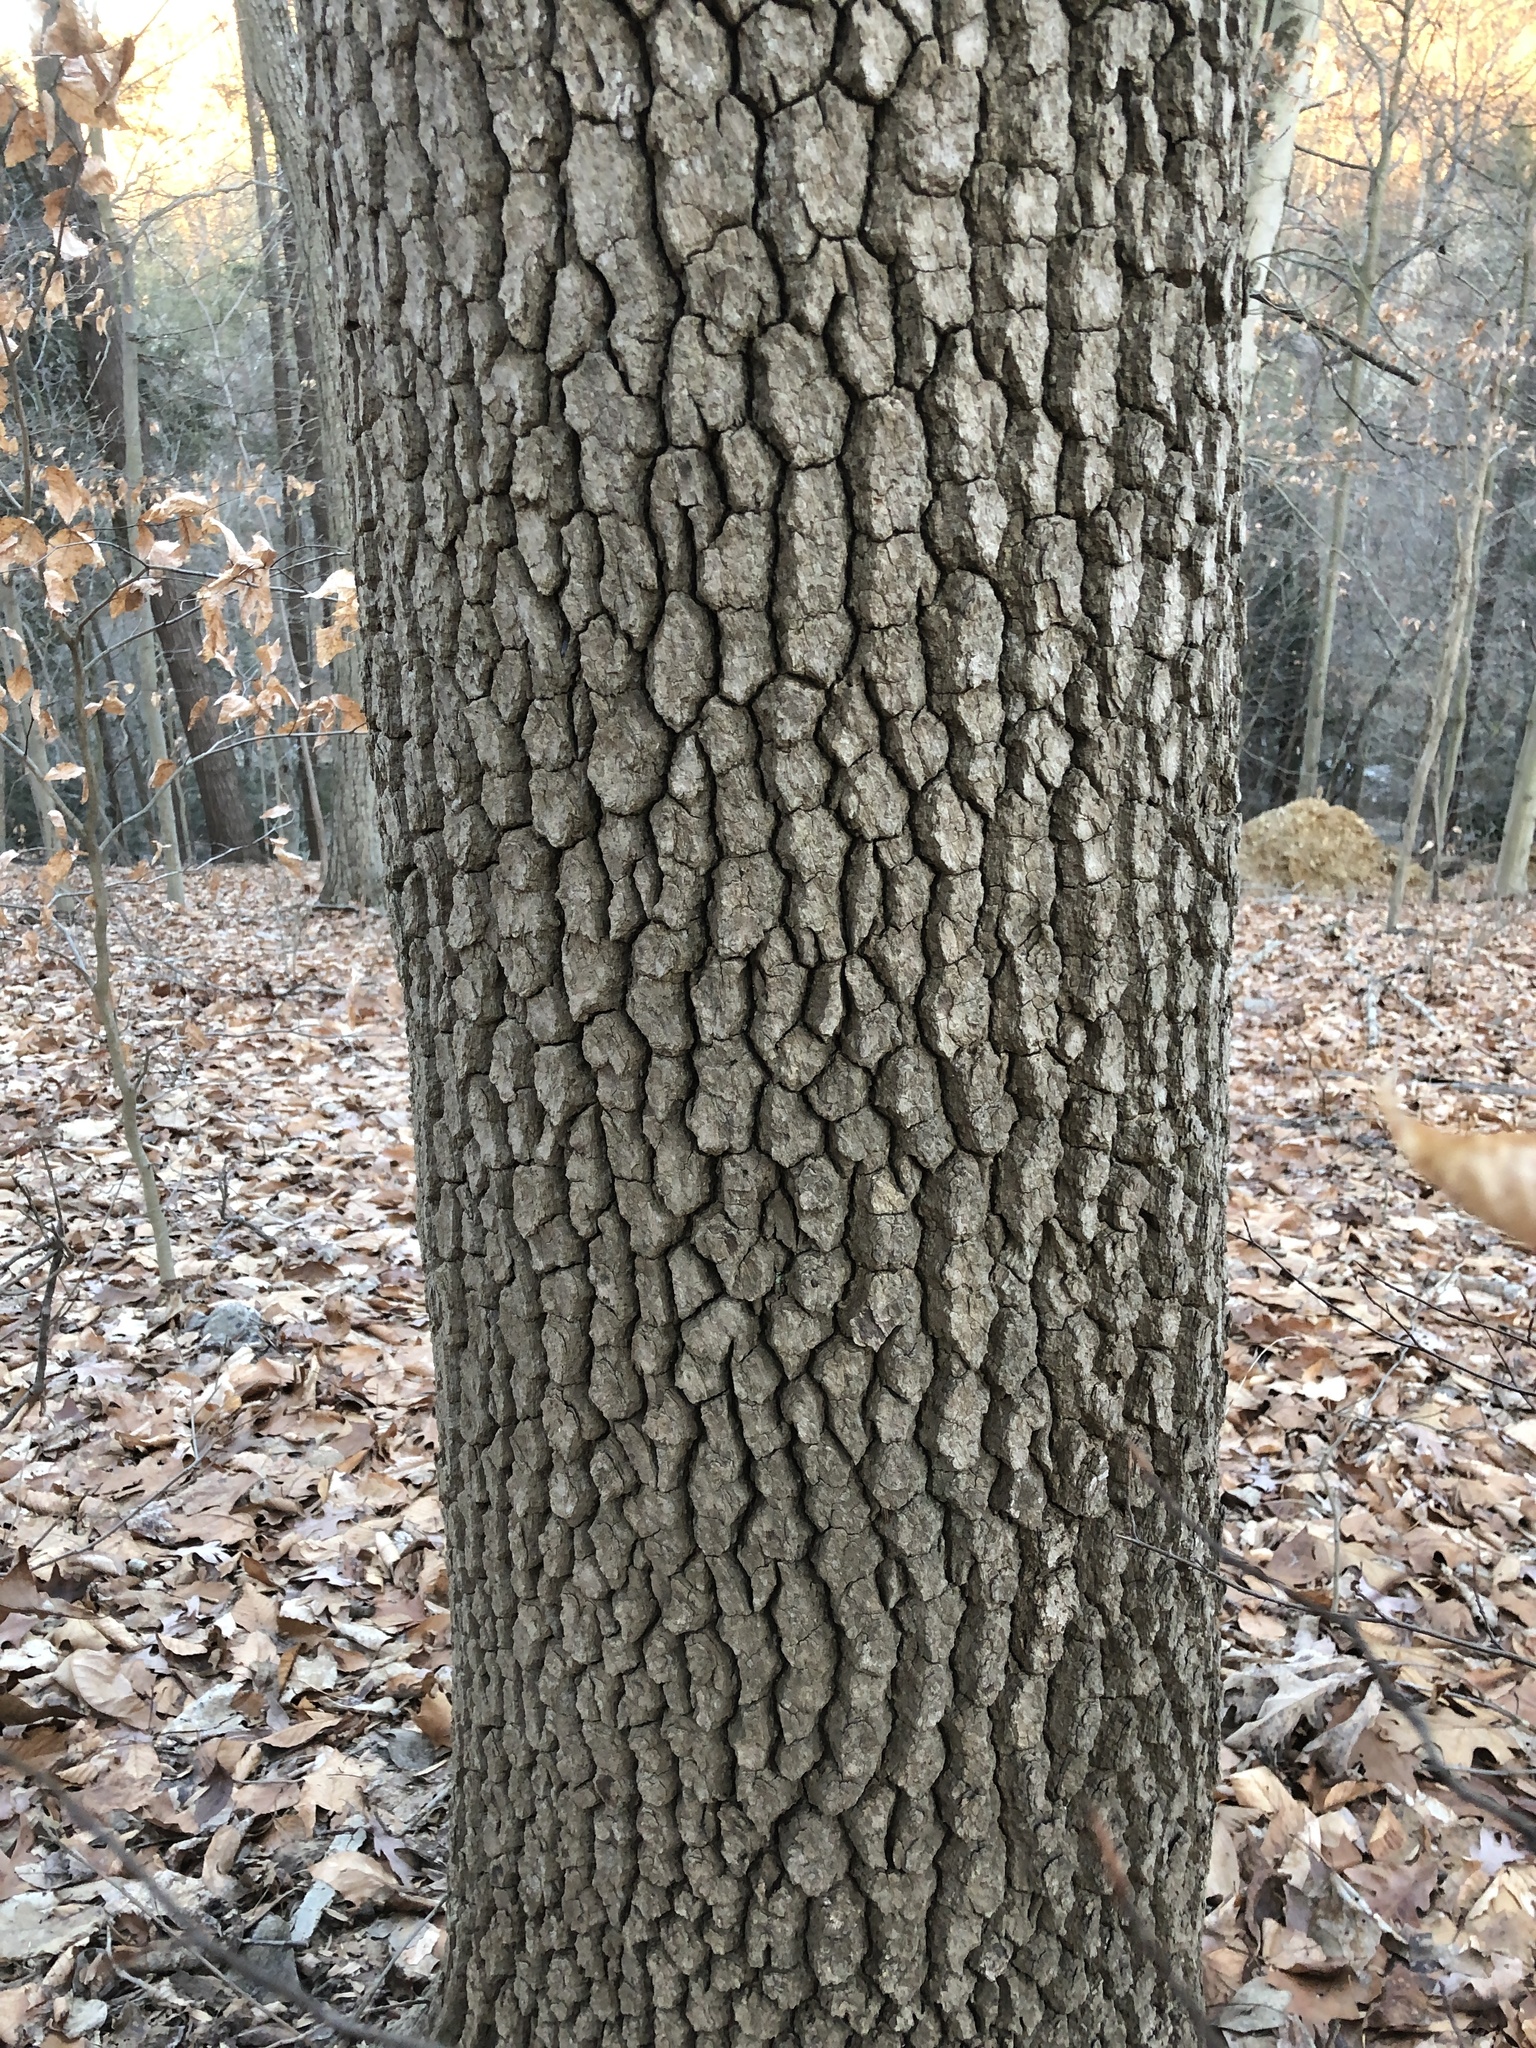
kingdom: Plantae
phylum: Tracheophyta
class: Magnoliopsida
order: Cornales
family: Nyssaceae
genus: Nyssa
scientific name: Nyssa sylvatica
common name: Black tupelo
